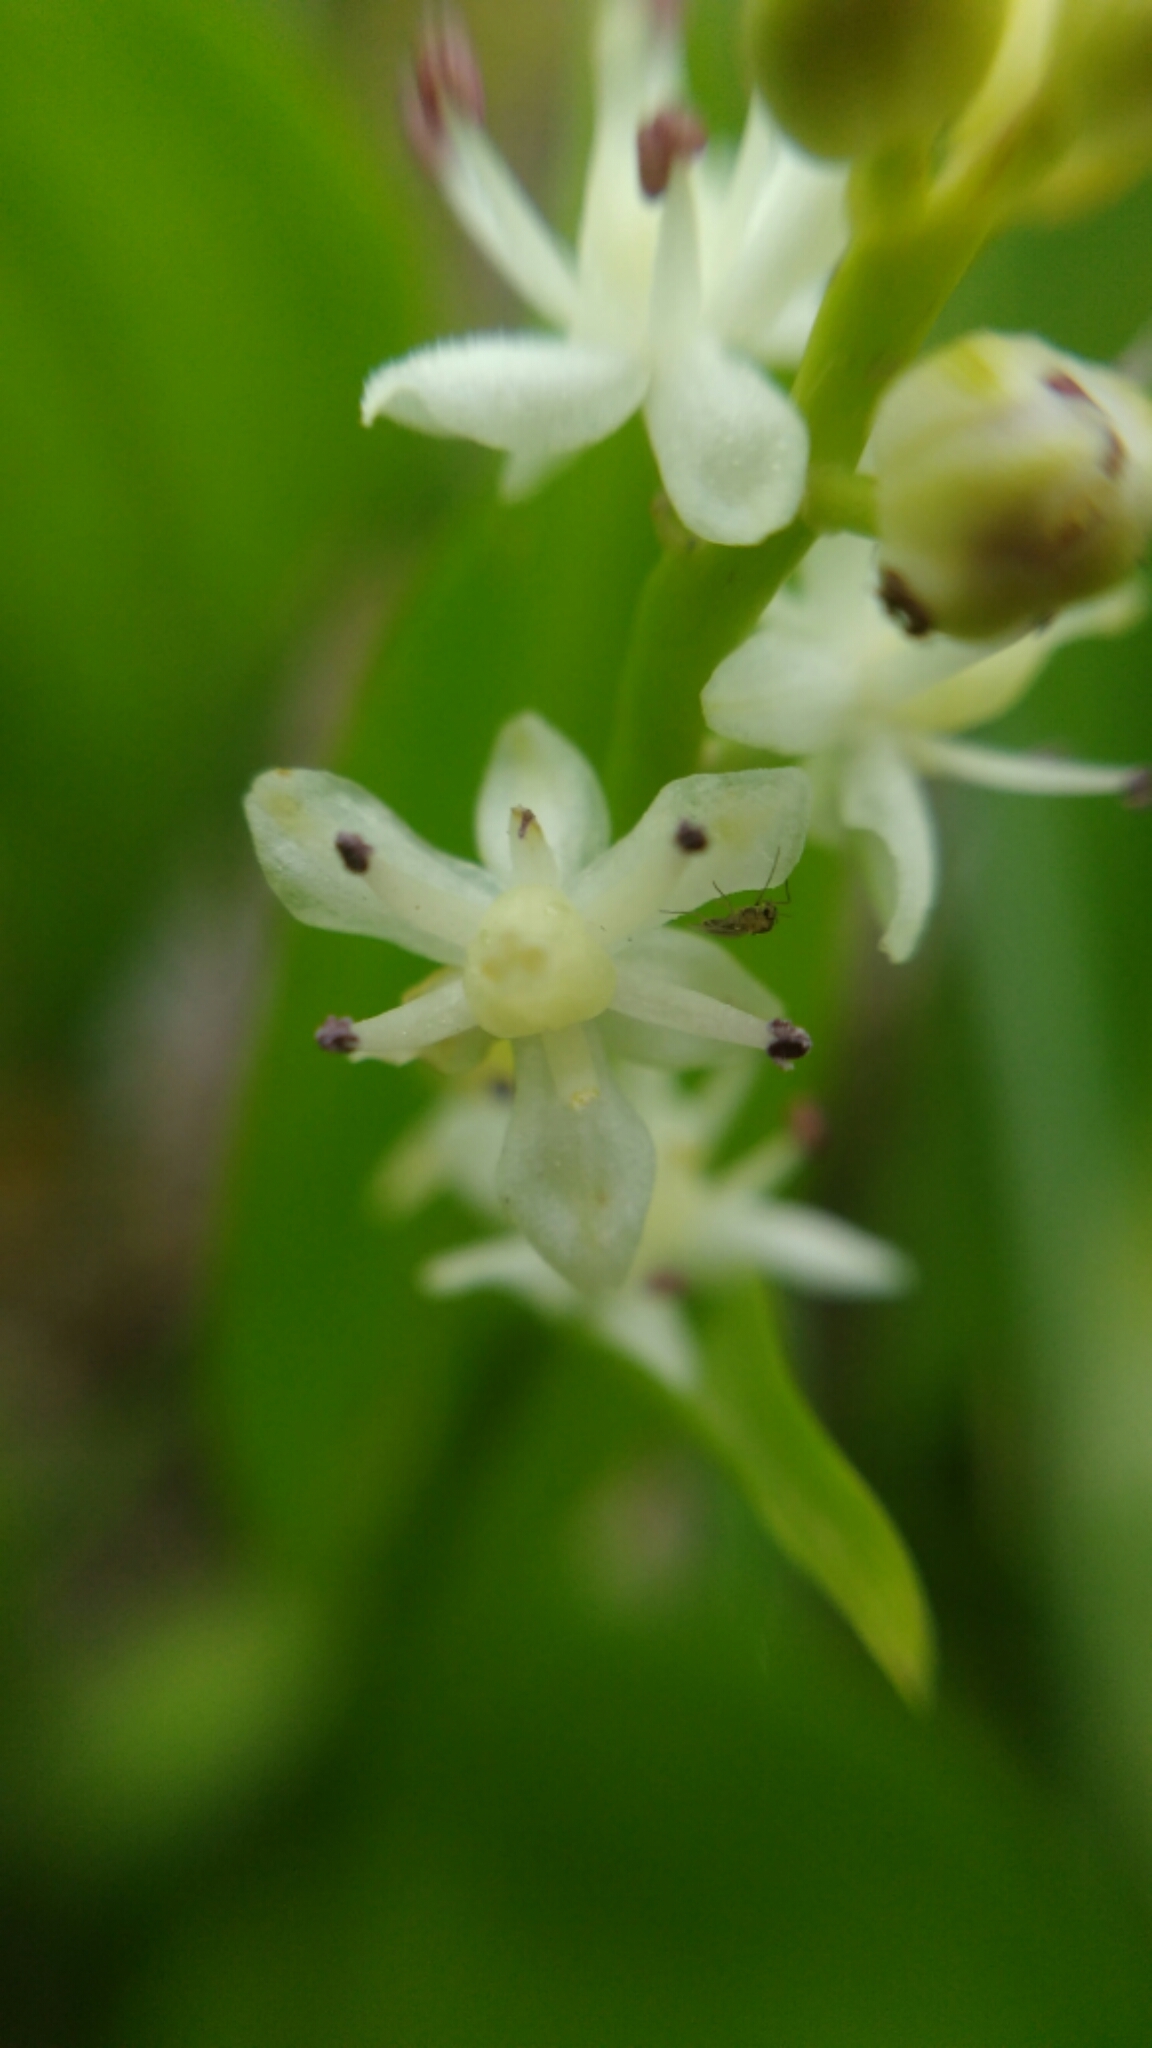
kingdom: Plantae
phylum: Tracheophyta
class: Liliopsida
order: Asparagales
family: Asparagaceae
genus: Maianthemum
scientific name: Maianthemum trifolium
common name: Swamp false solomon's seal
